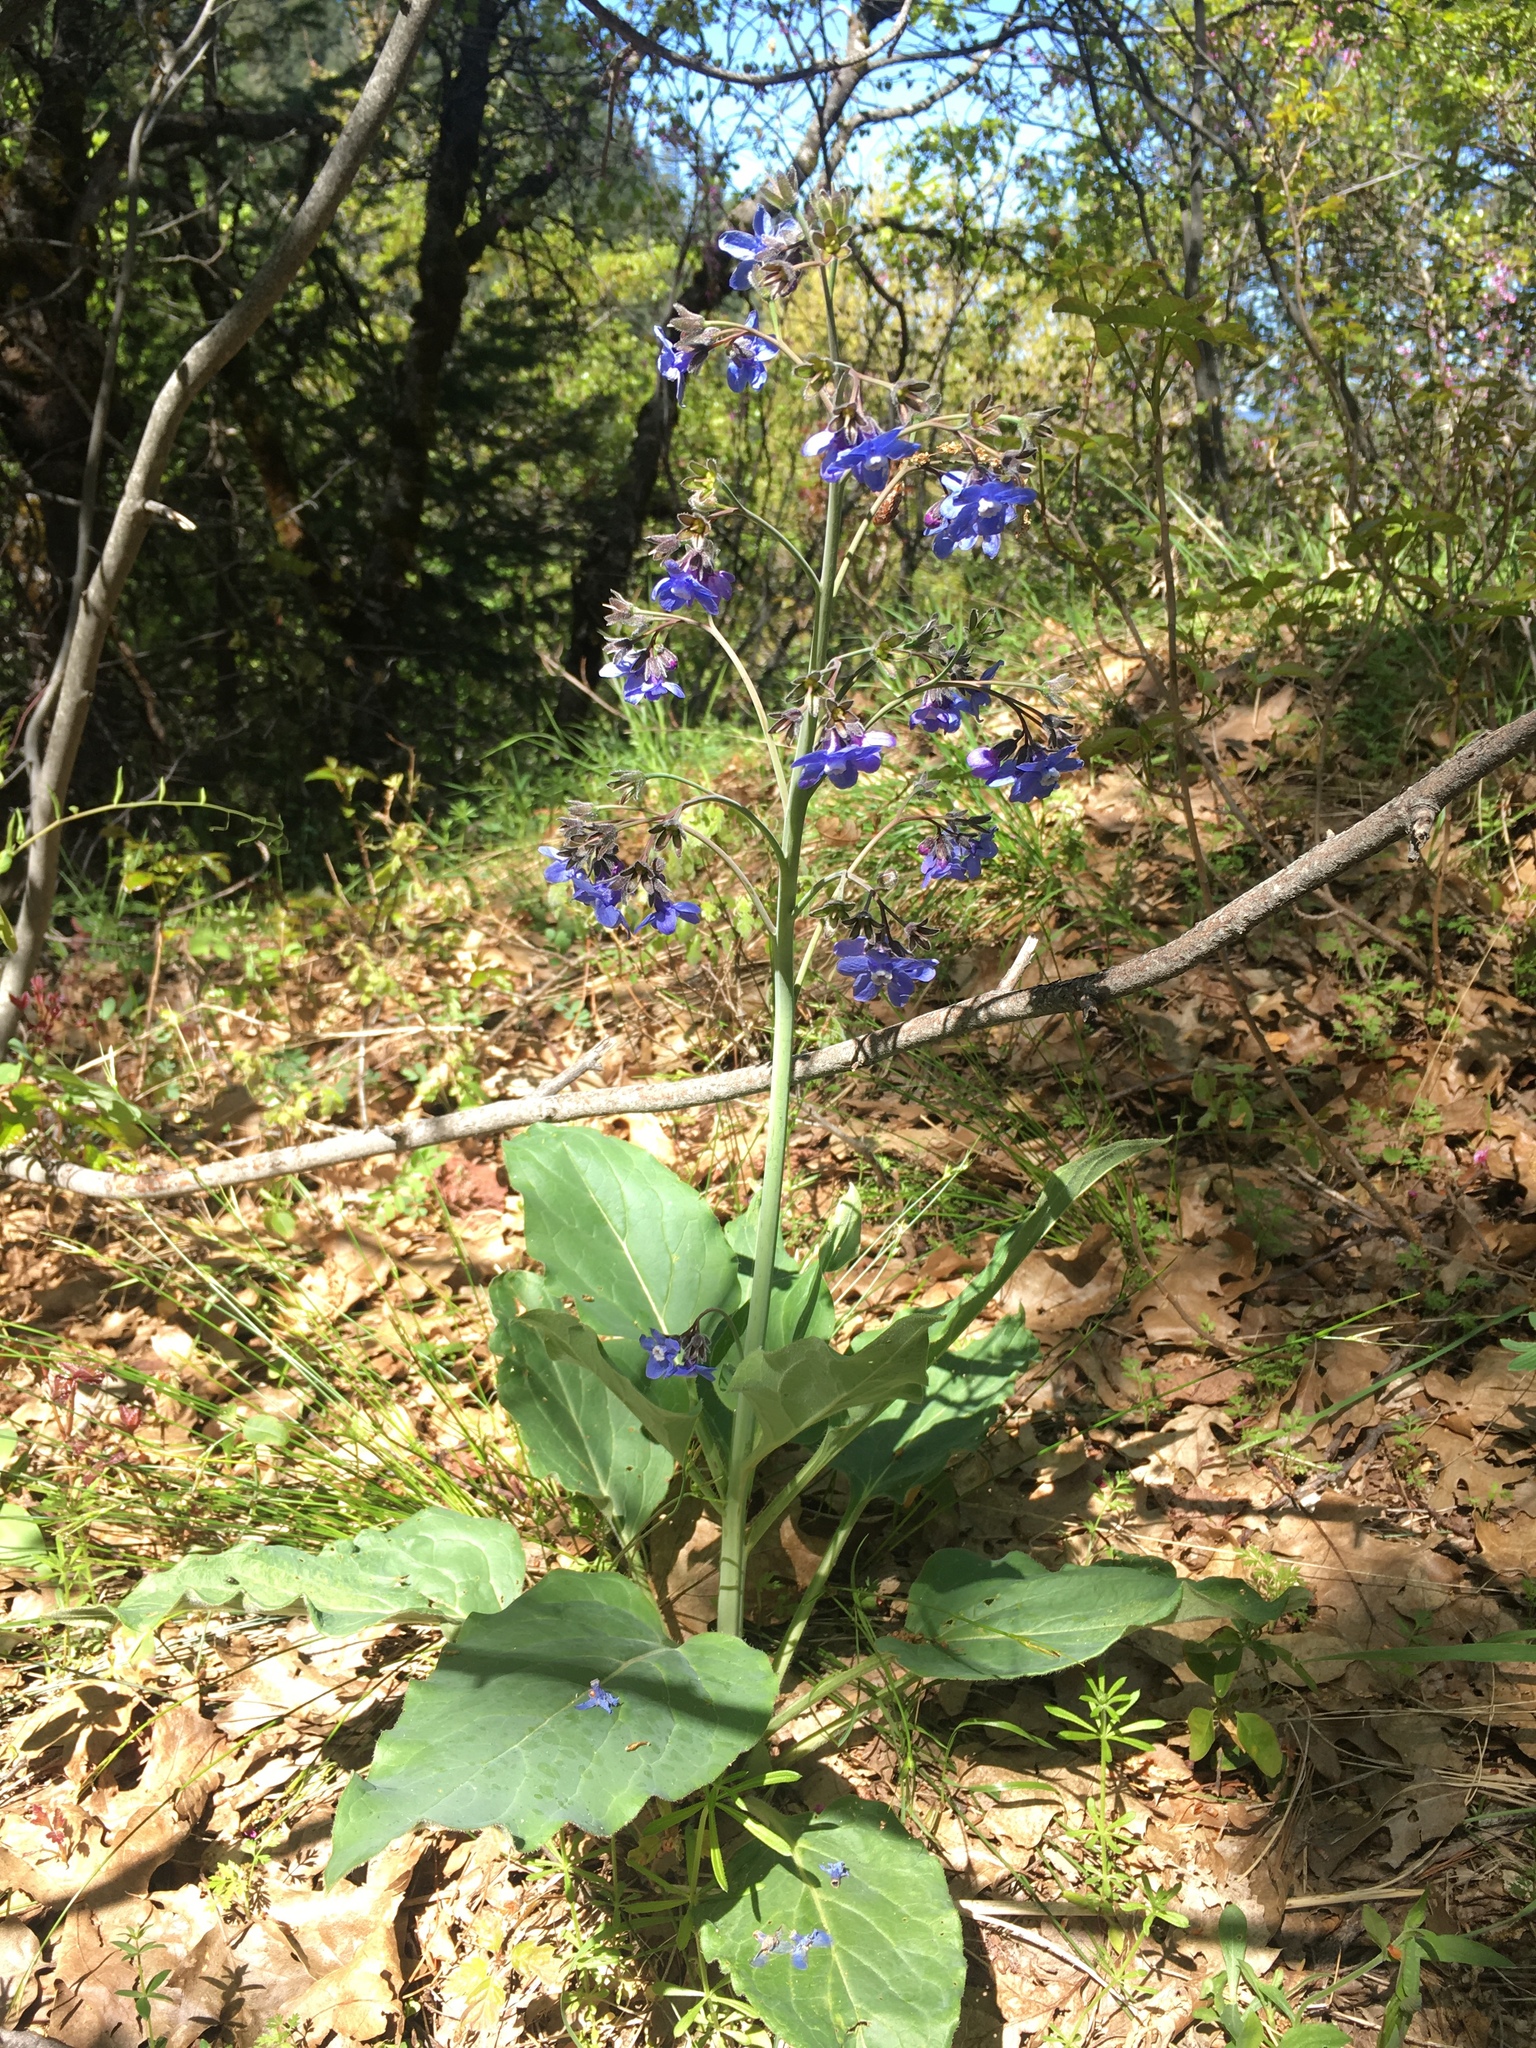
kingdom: Plantae
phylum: Tracheophyta
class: Magnoliopsida
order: Boraginales
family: Boraginaceae
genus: Adelinia
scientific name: Adelinia grande
